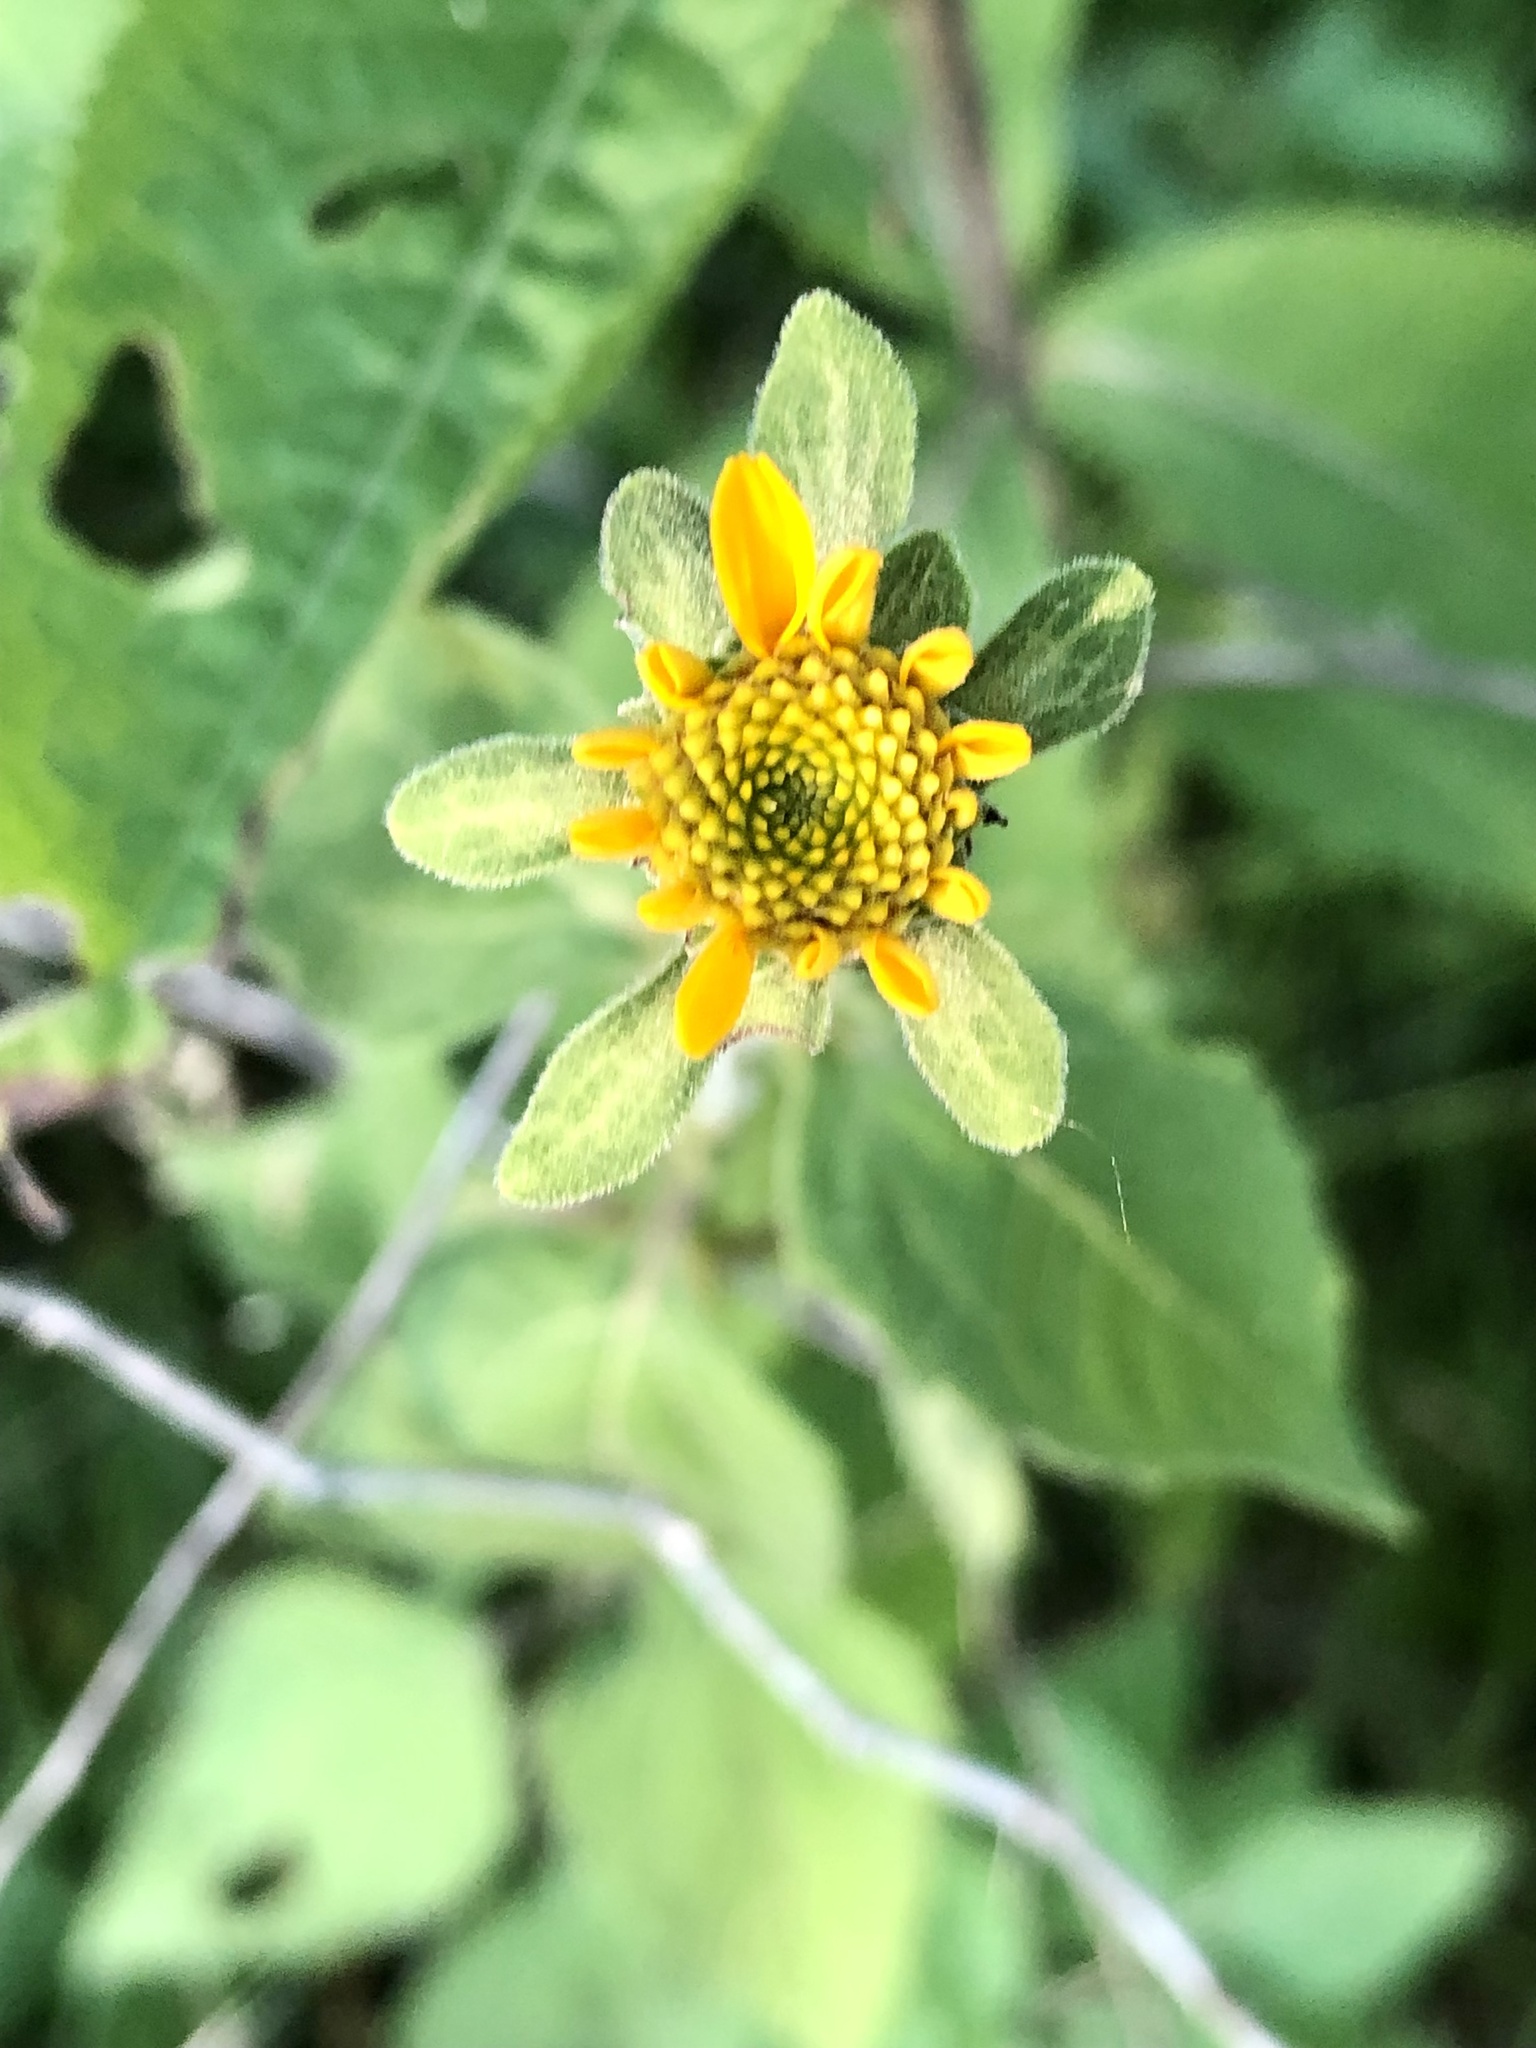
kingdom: Plantae
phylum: Tracheophyta
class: Magnoliopsida
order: Asterales
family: Asteraceae
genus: Heliopsis
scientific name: Heliopsis helianthoides
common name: False sunflower
